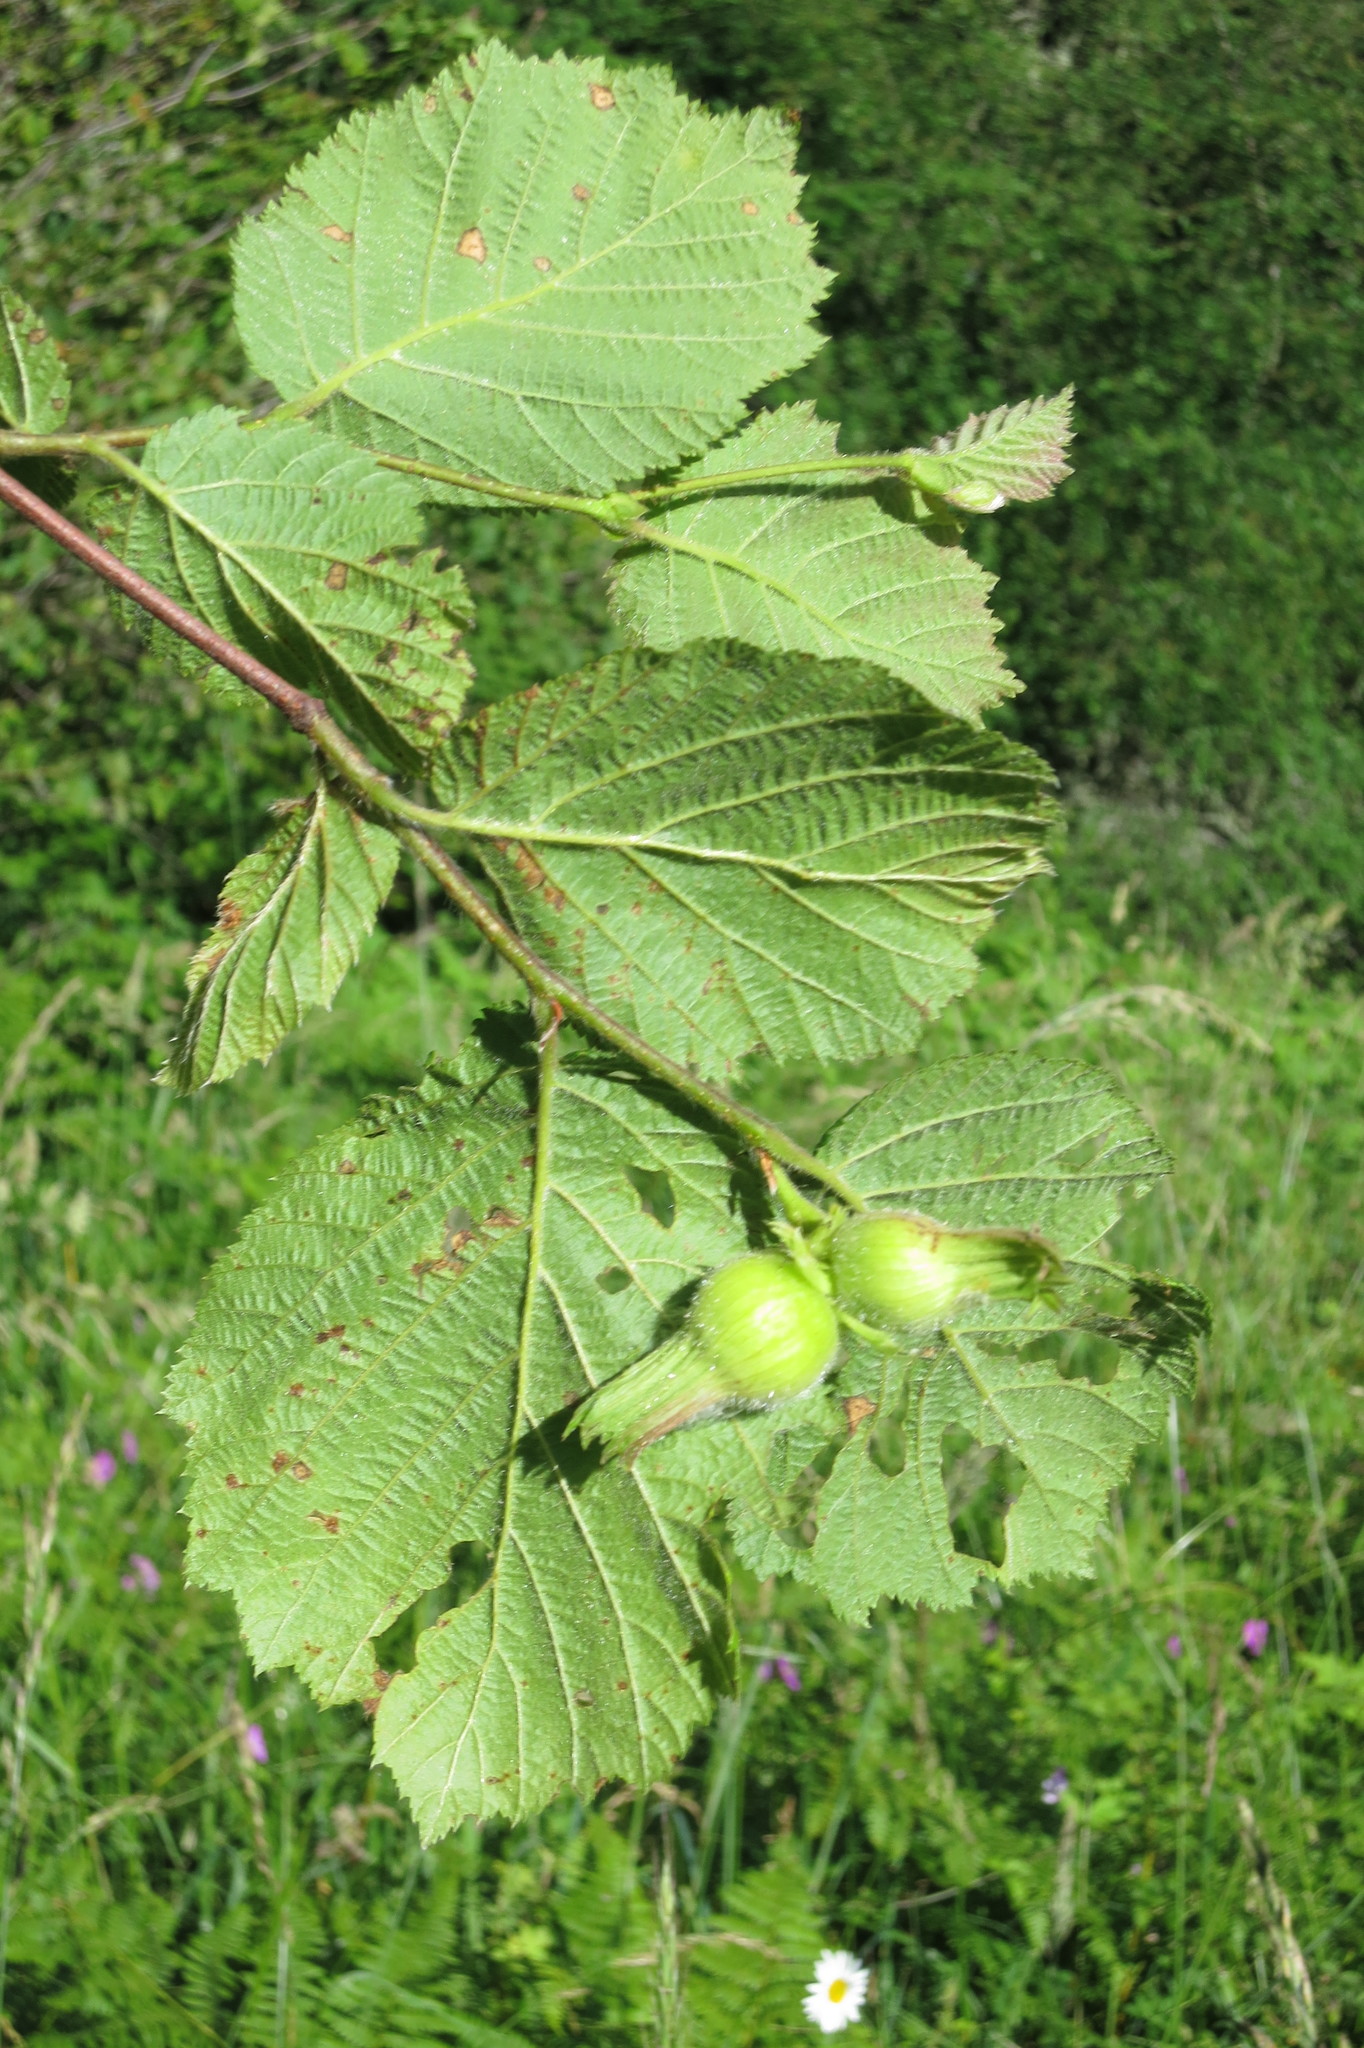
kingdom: Plantae
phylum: Tracheophyta
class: Magnoliopsida
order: Fagales
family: Betulaceae
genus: Corylus
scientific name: Corylus cornuta
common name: Beaked hazel
